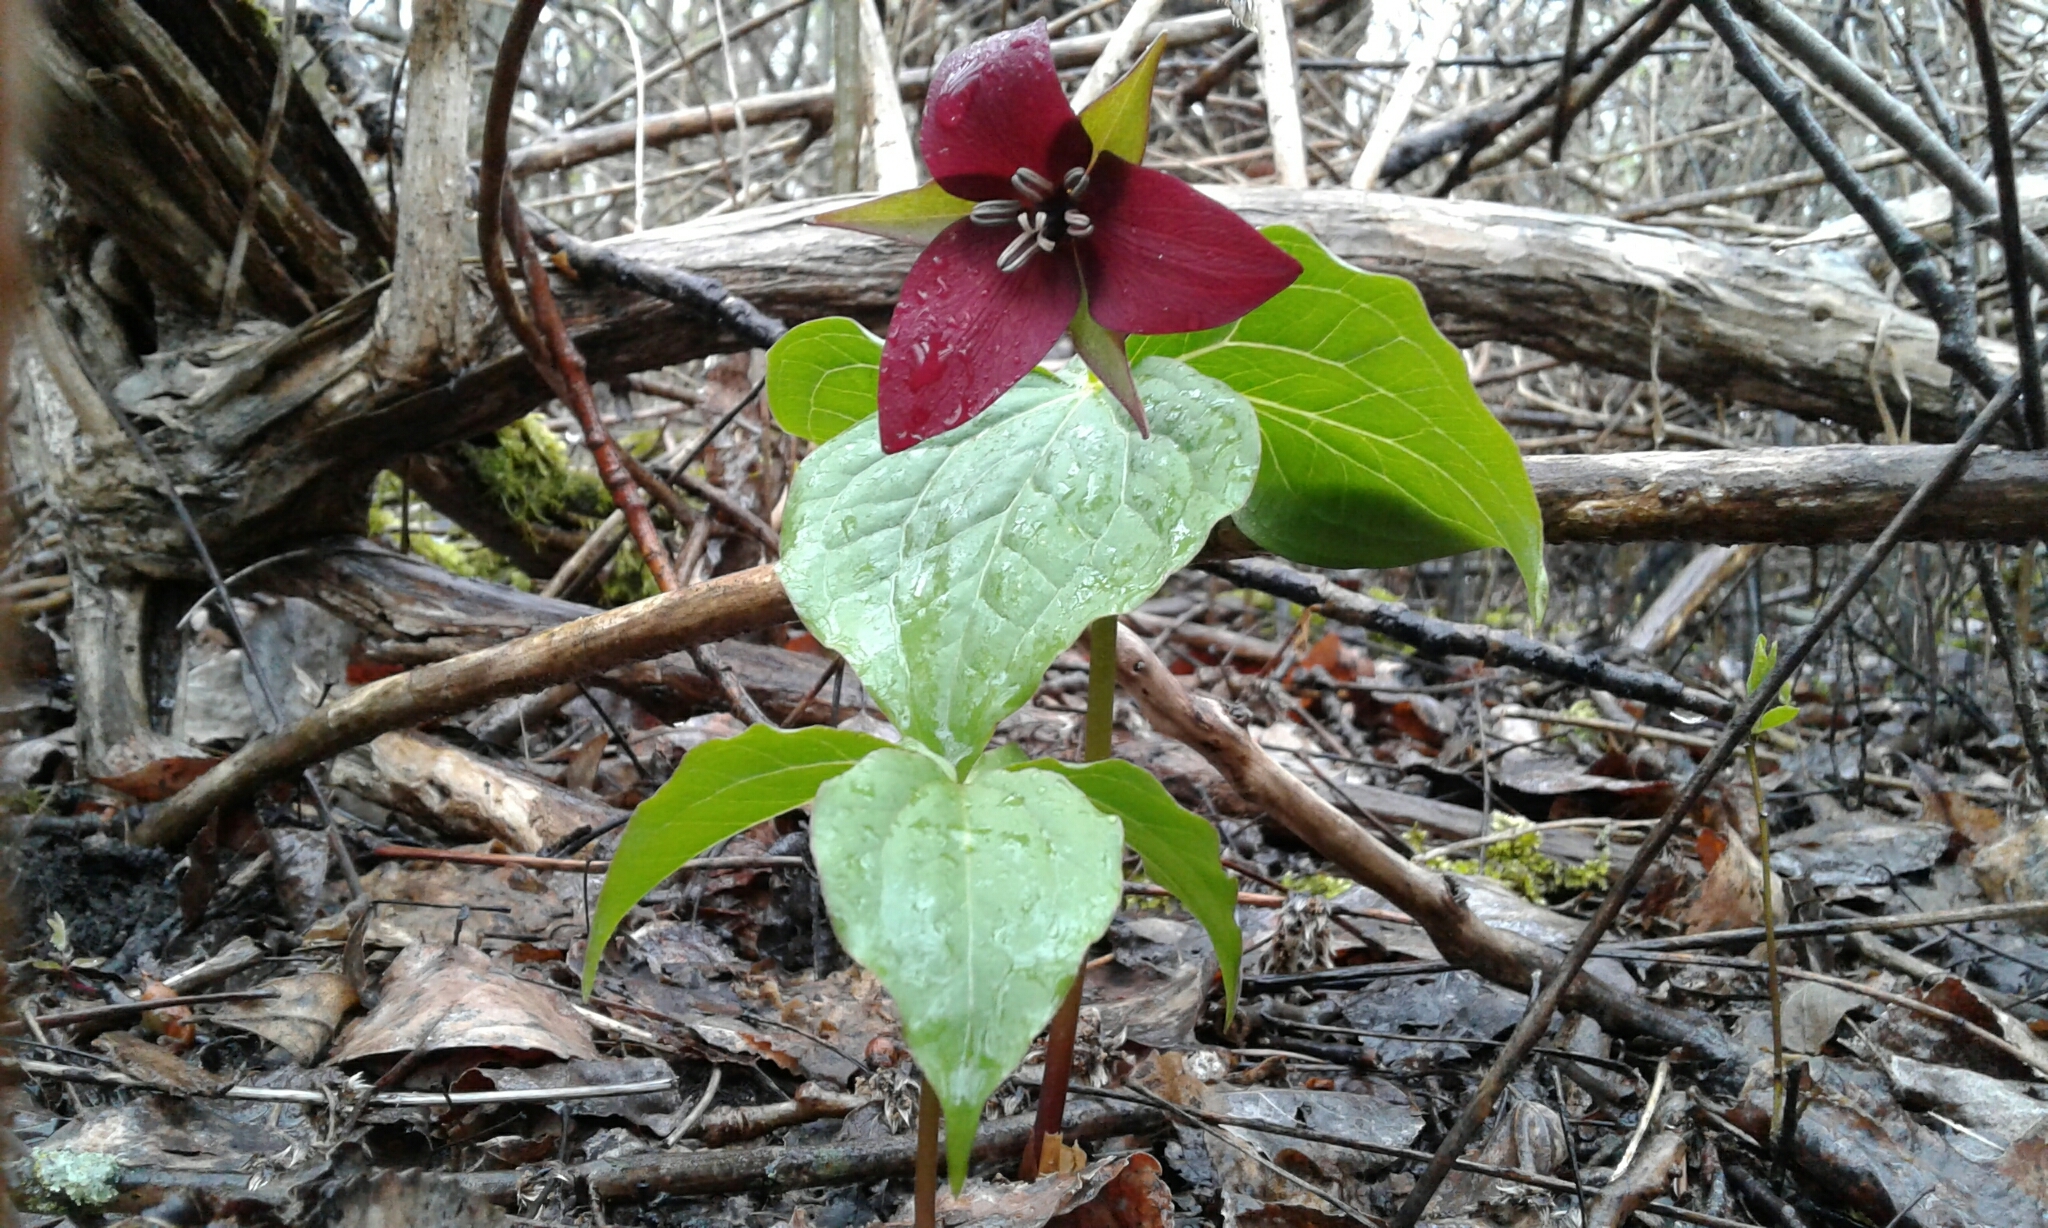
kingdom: Plantae
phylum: Tracheophyta
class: Liliopsida
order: Liliales
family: Melanthiaceae
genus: Trillium
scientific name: Trillium erectum
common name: Purple trillium
